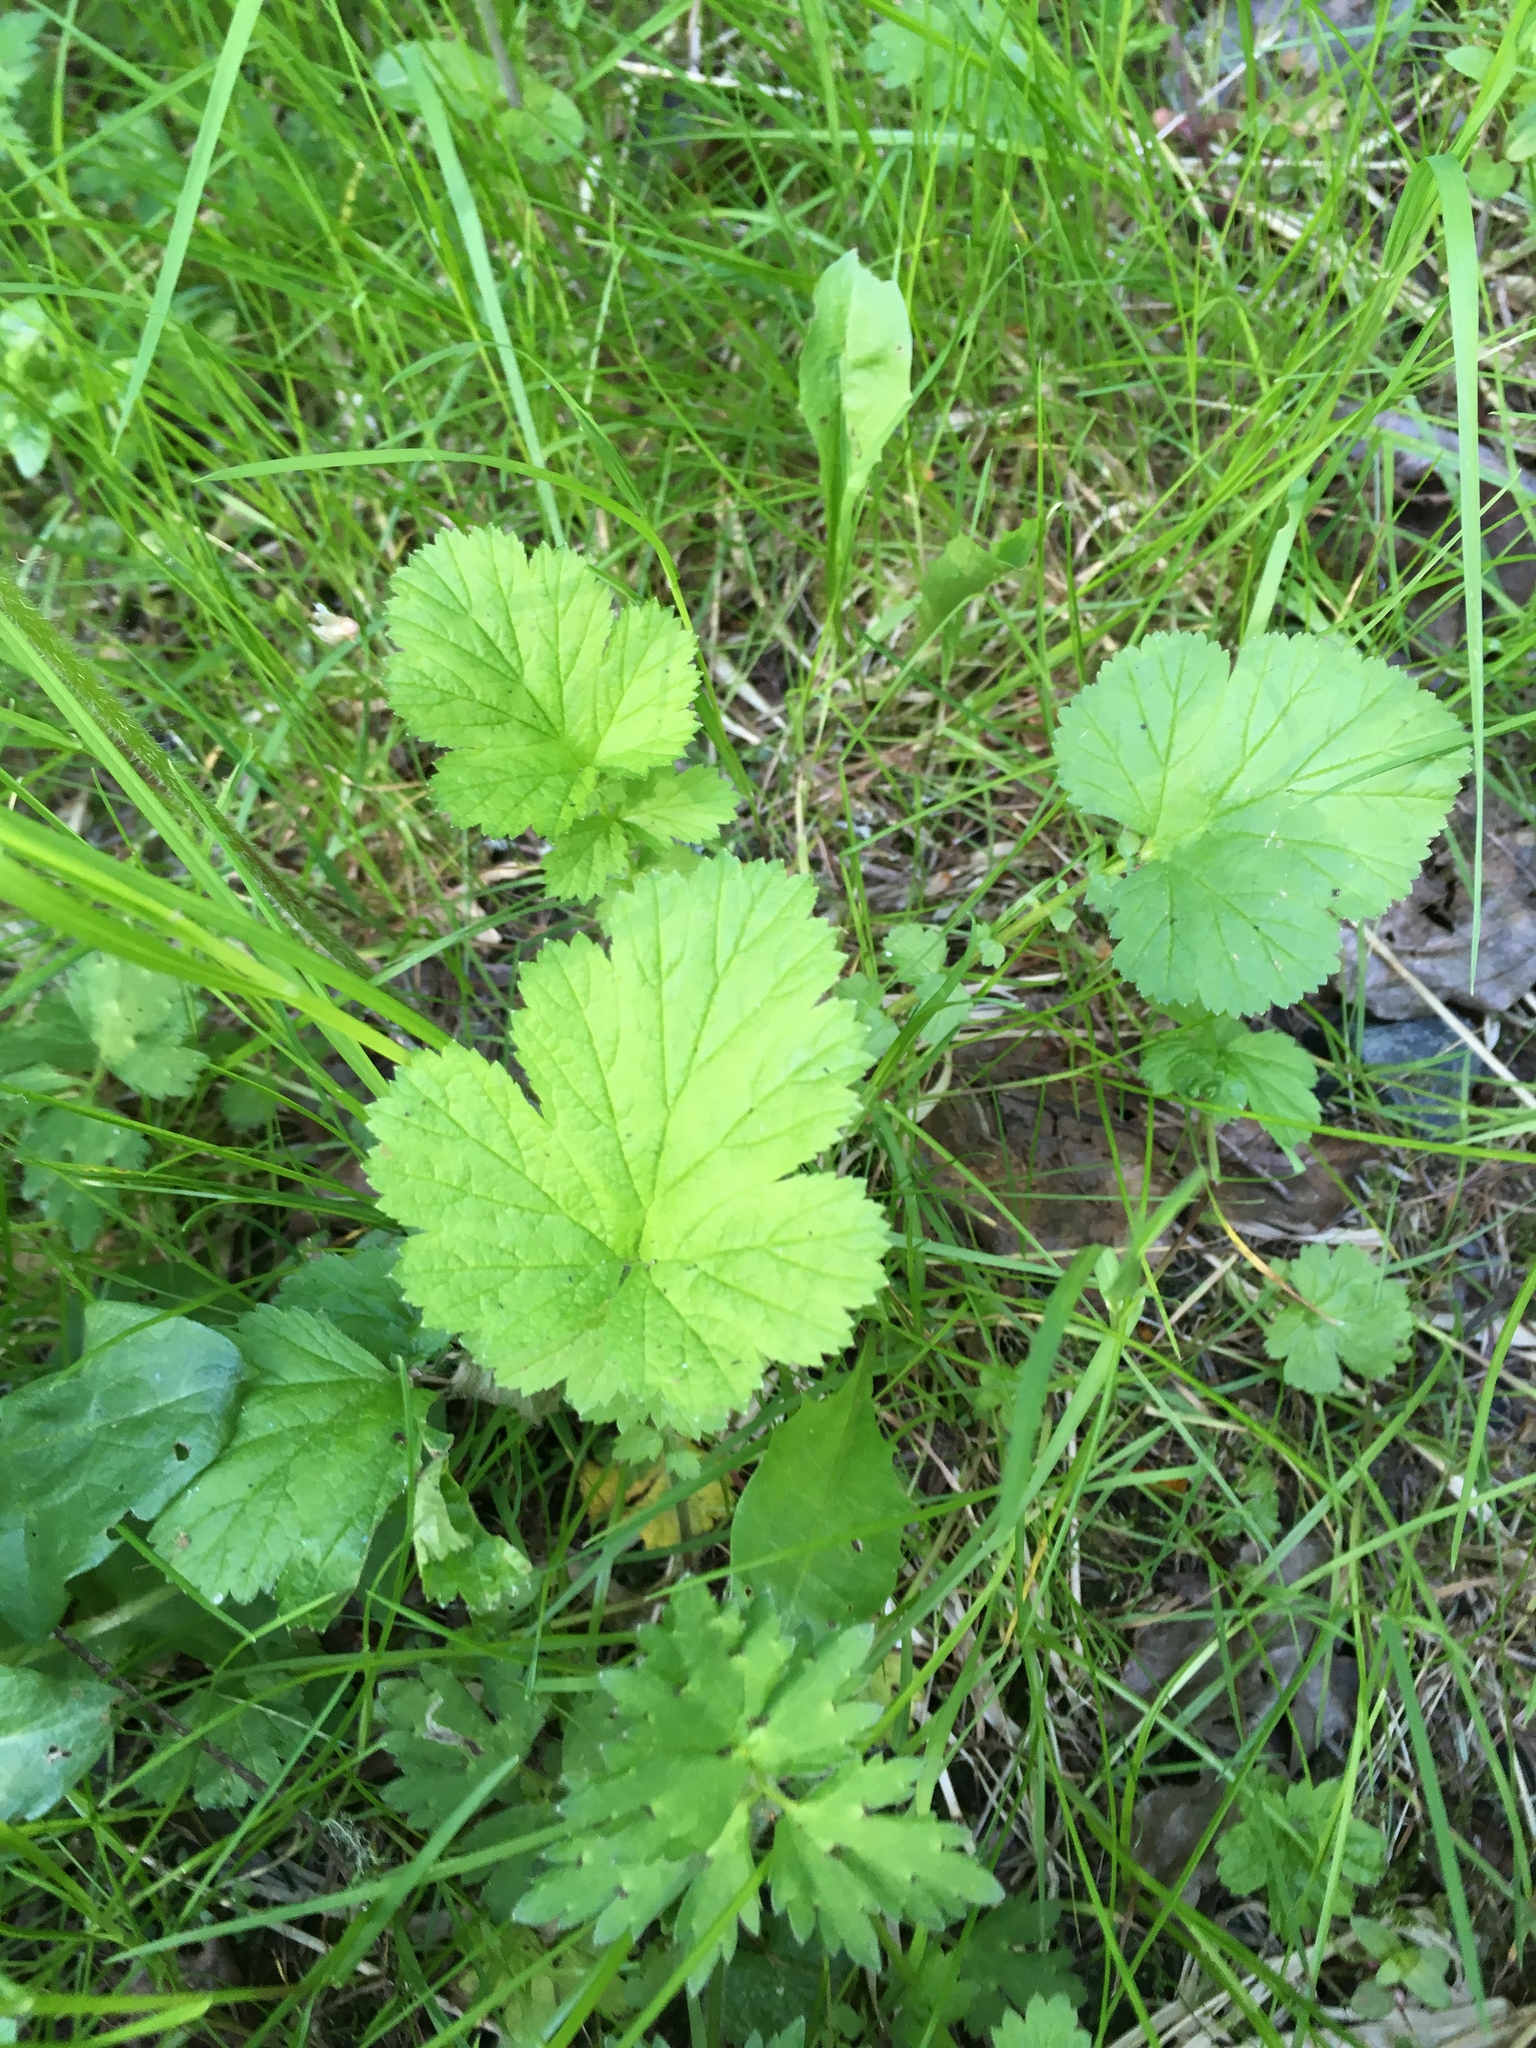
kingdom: Plantae
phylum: Tracheophyta
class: Magnoliopsida
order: Rosales
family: Rosaceae
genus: Geum
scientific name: Geum macrophyllum
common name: Large-leaved avens
